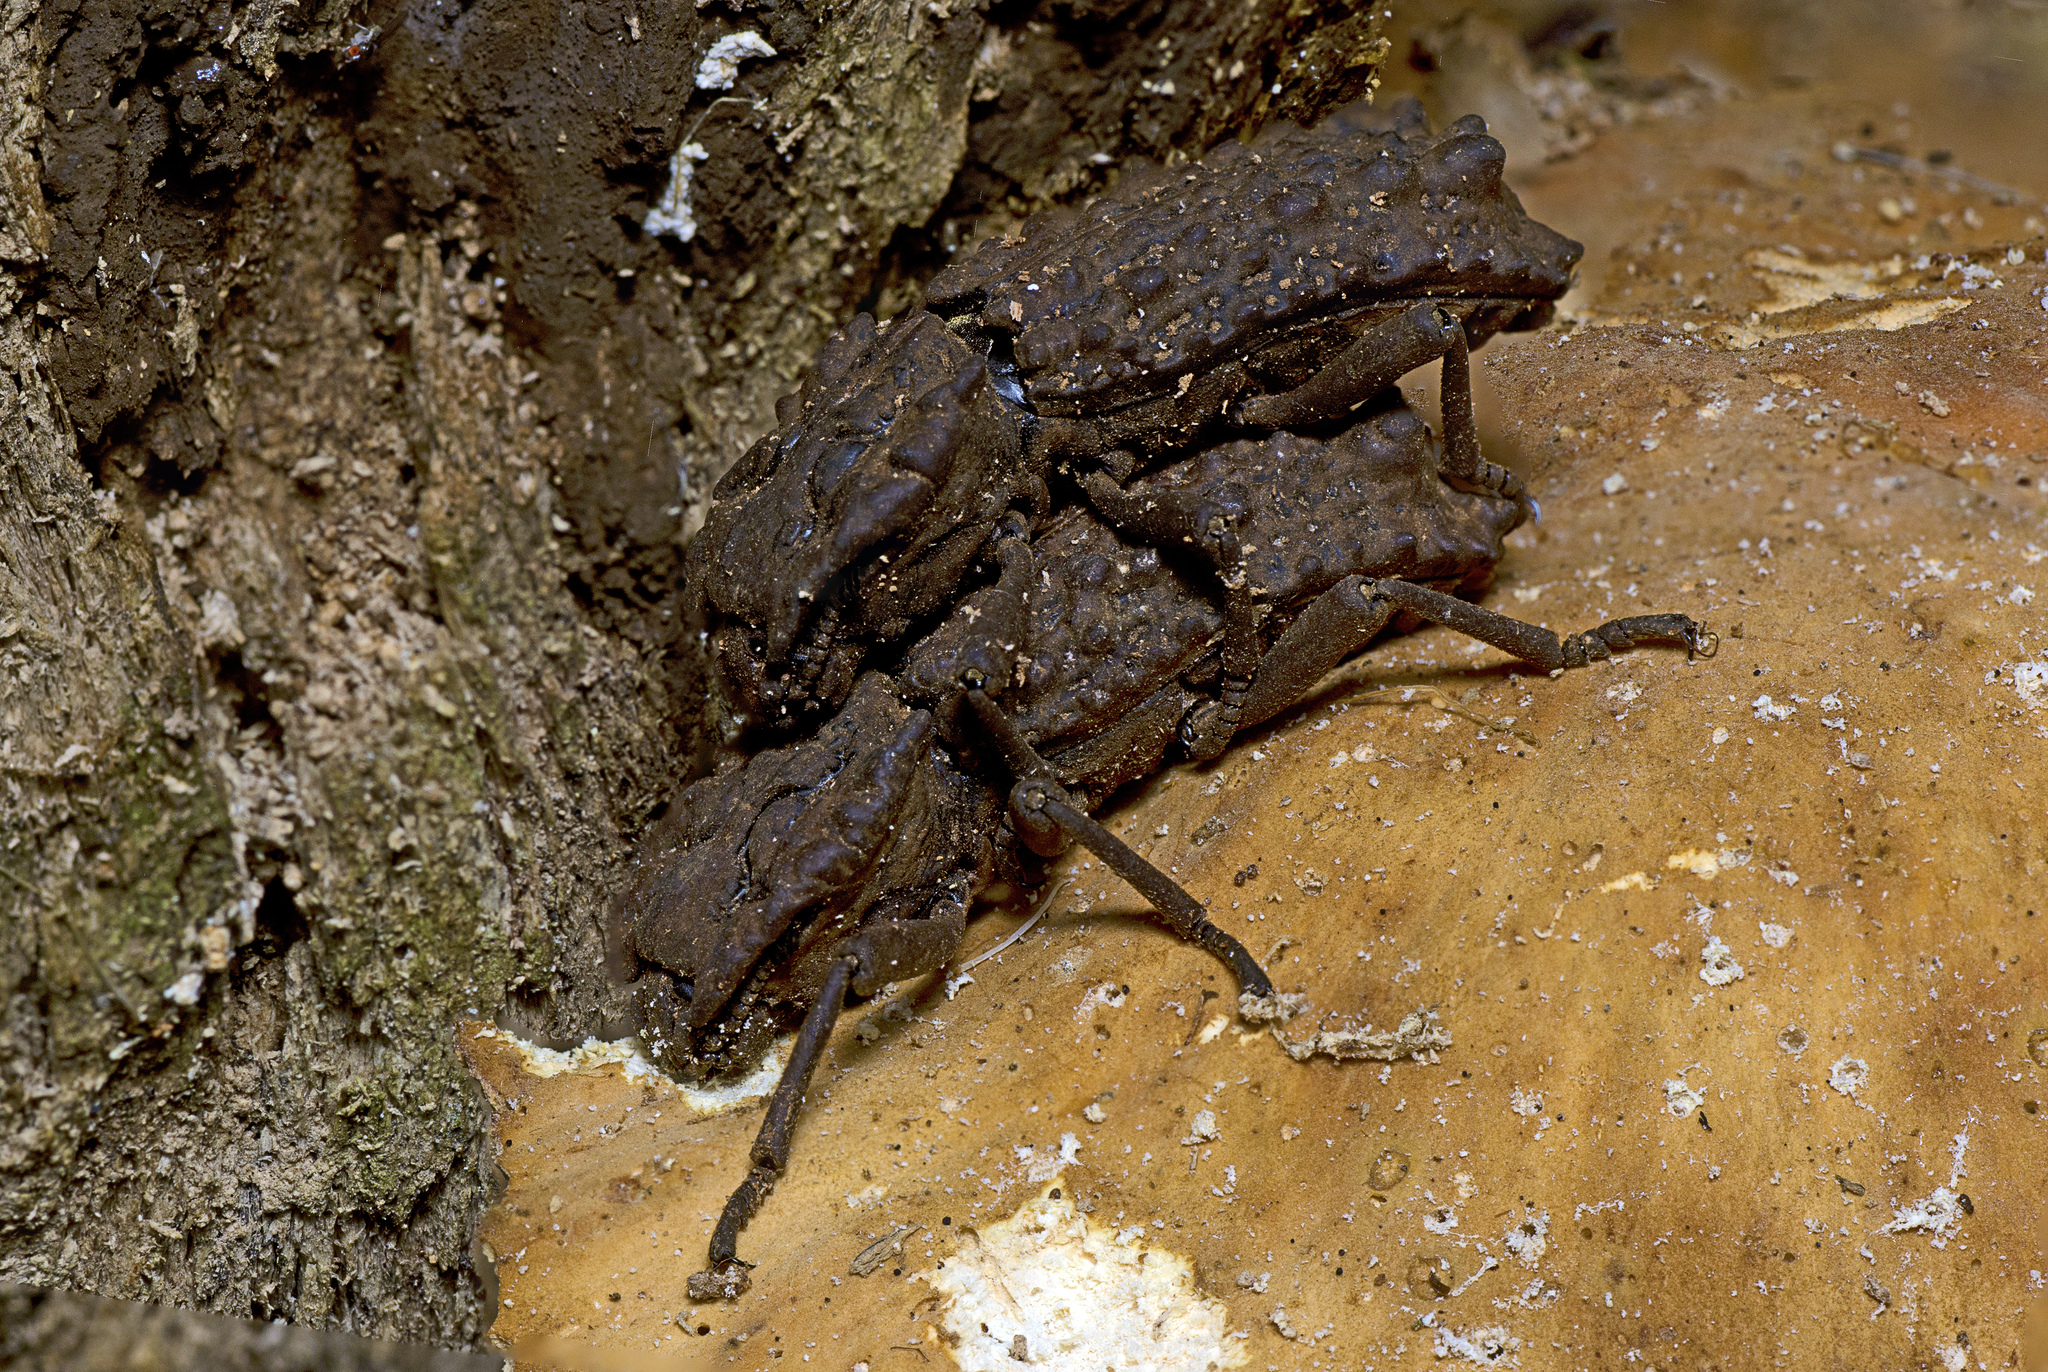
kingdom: Animalia
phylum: Arthropoda
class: Insecta
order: Coleoptera
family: Zopheridae
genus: Zopherosis
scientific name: Zopherosis
